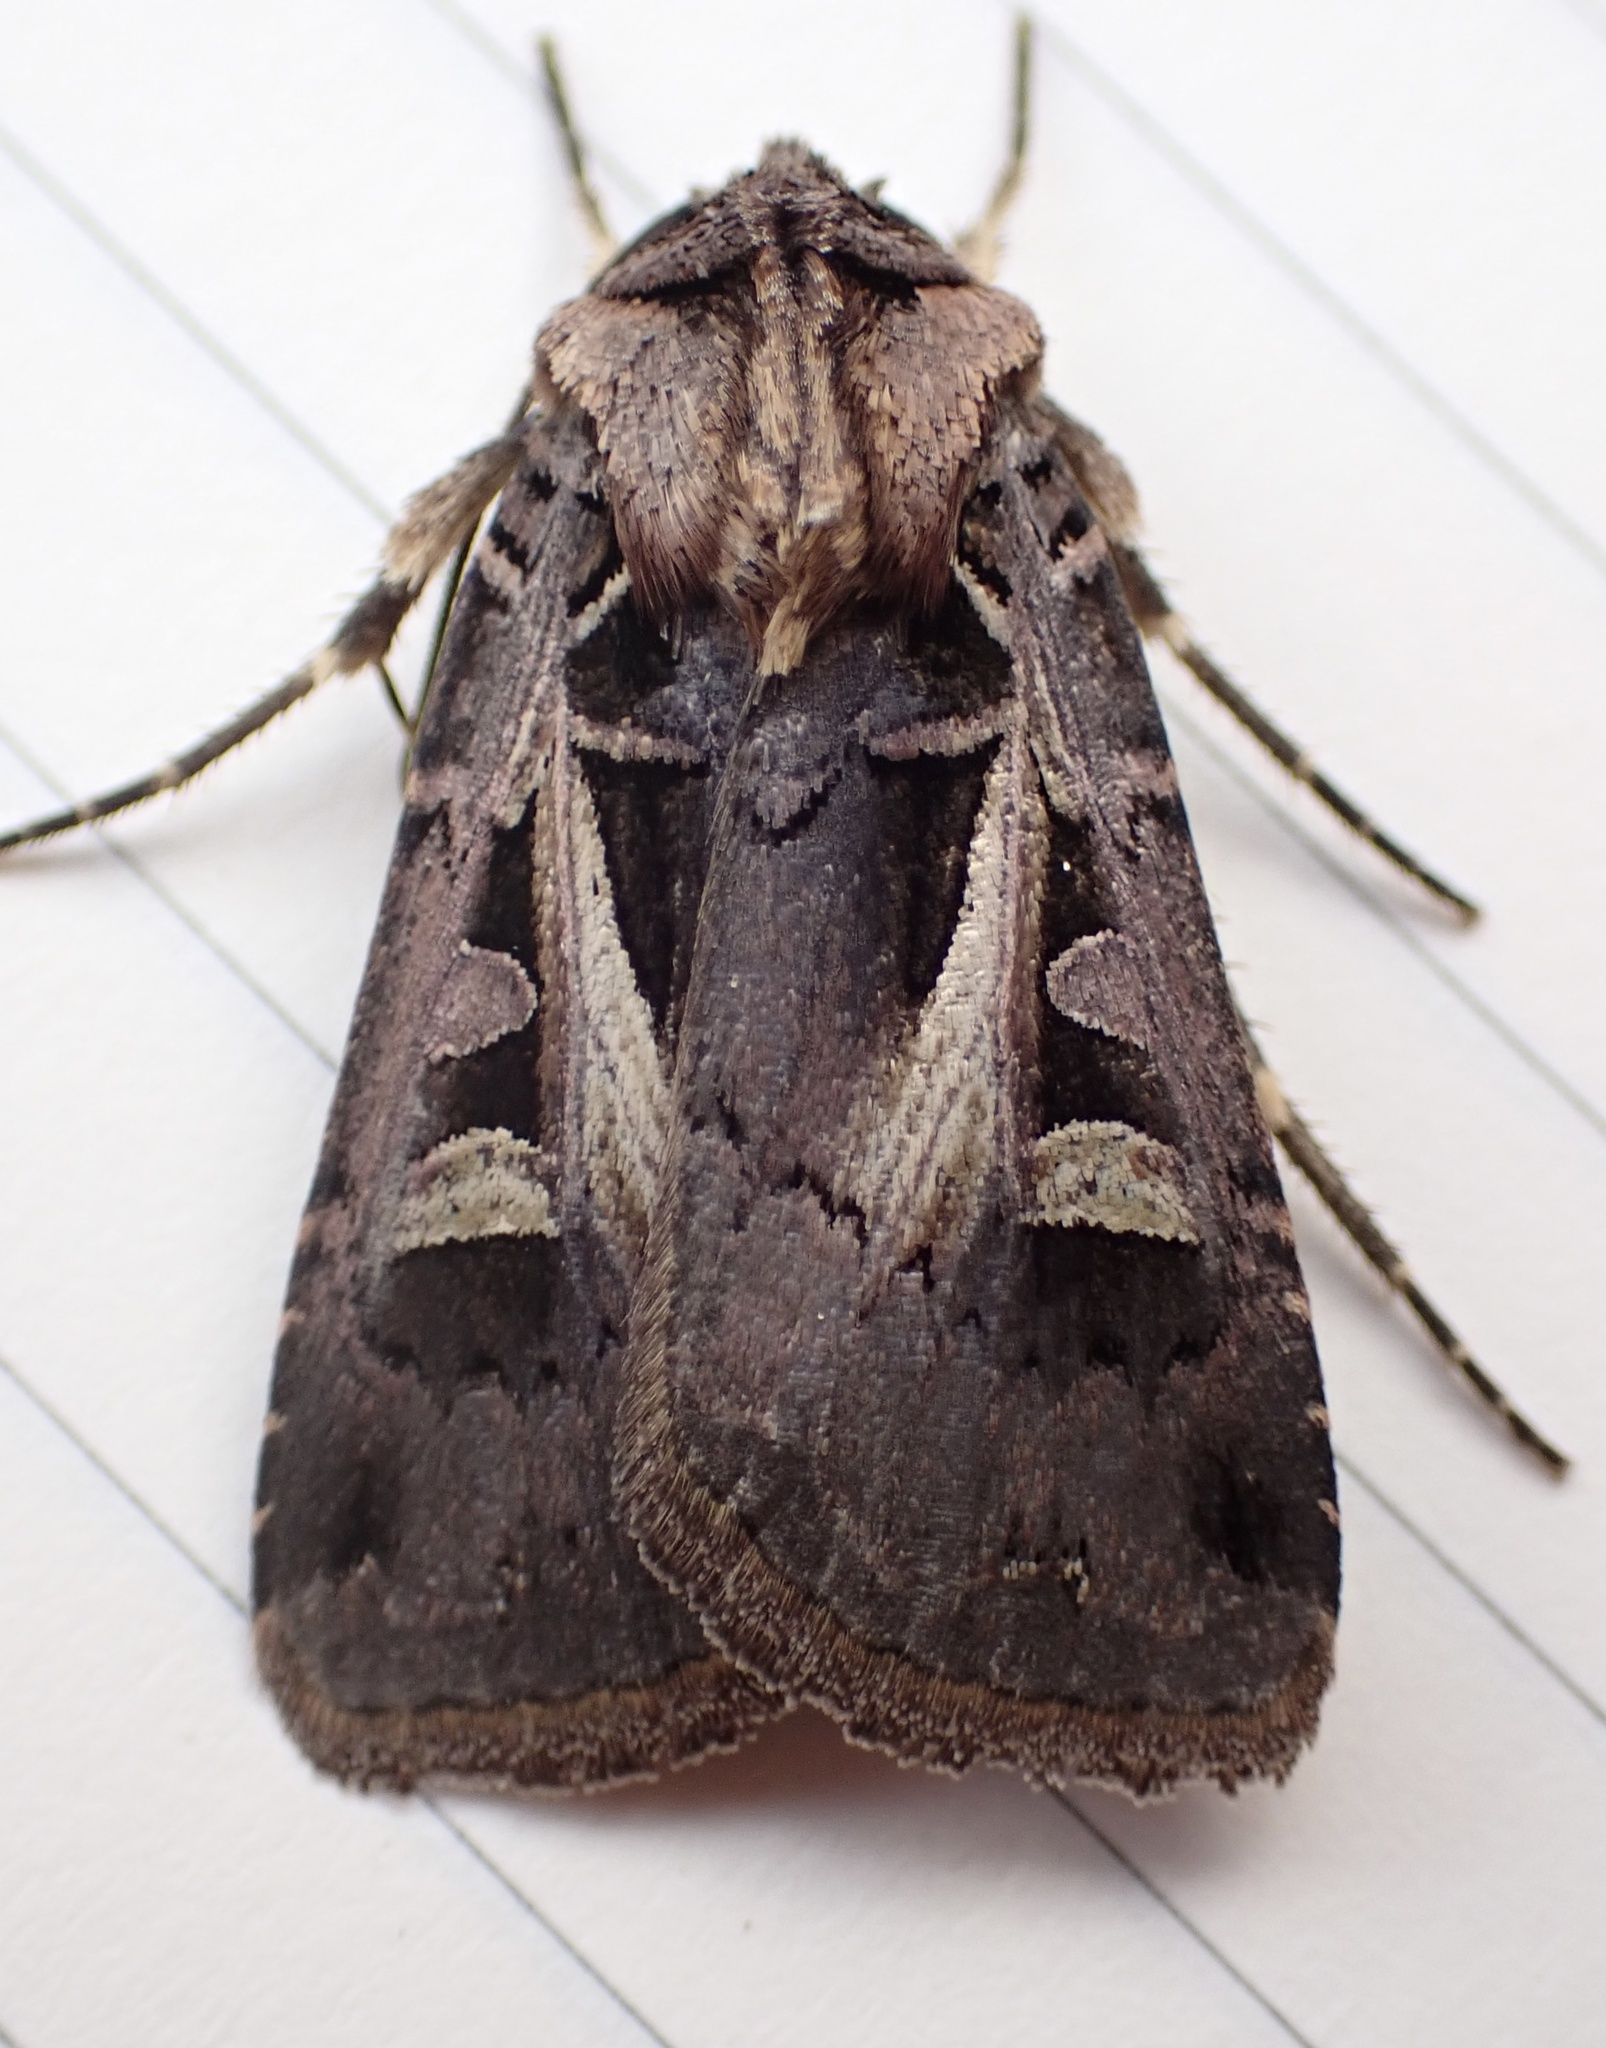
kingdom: Animalia
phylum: Arthropoda
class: Insecta
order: Lepidoptera
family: Noctuidae
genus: Feltia
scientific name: Feltia herilis
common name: Master's dart
